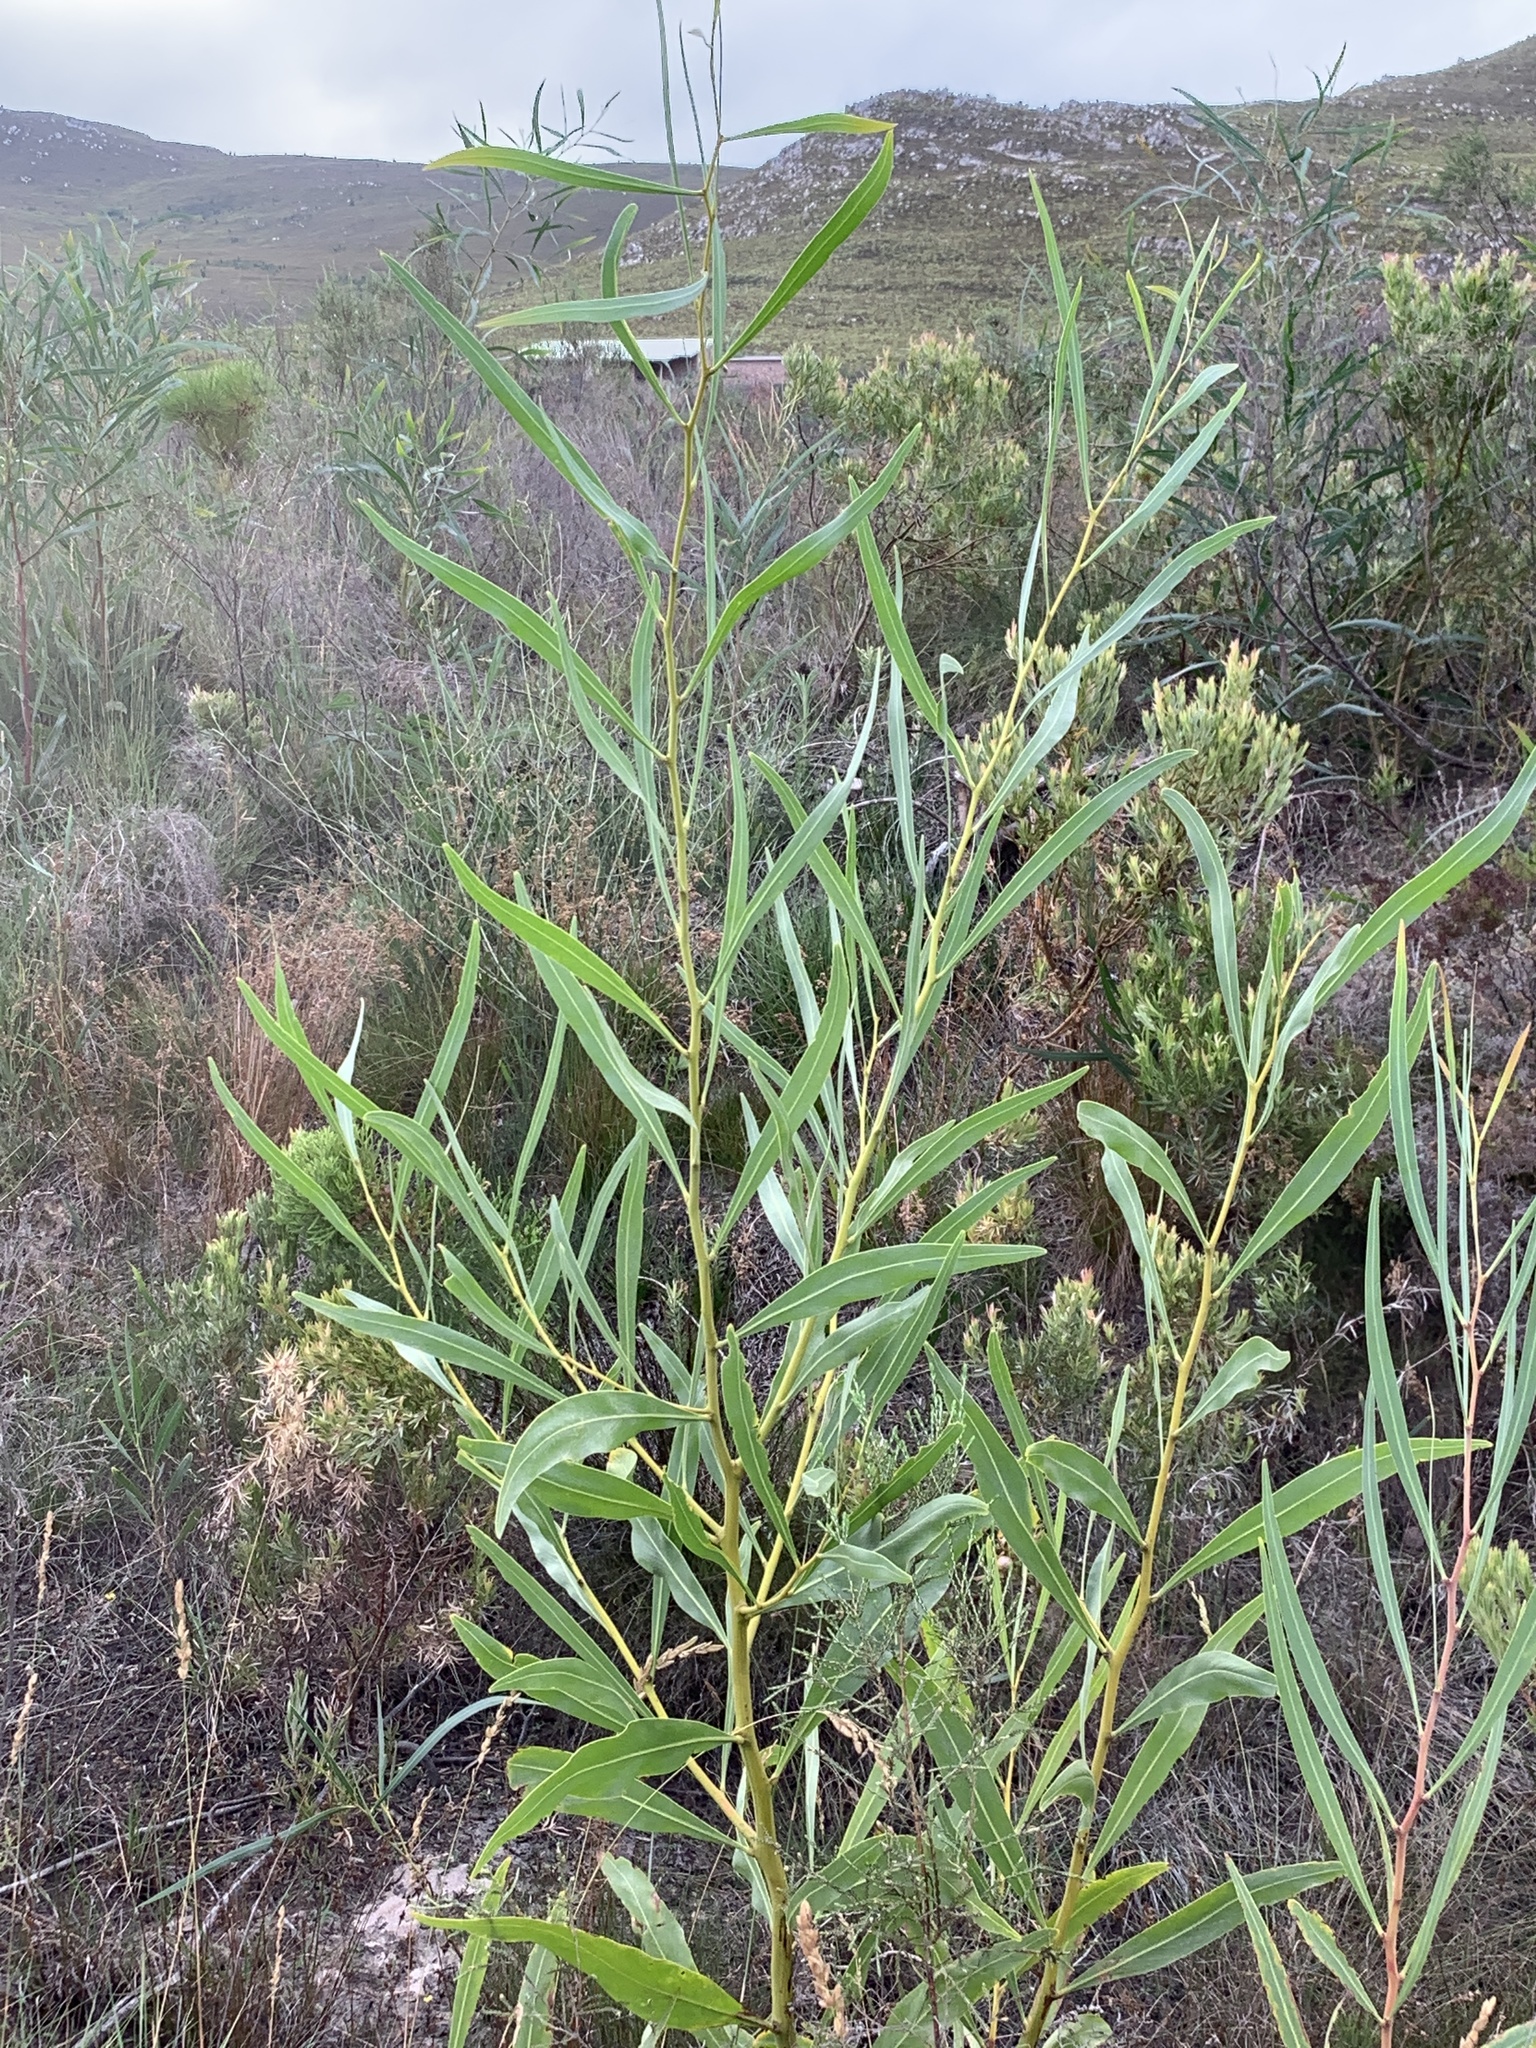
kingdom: Plantae
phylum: Tracheophyta
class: Magnoliopsida
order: Fabales
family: Fabaceae
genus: Acacia
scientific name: Acacia saligna
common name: Orange wattle
